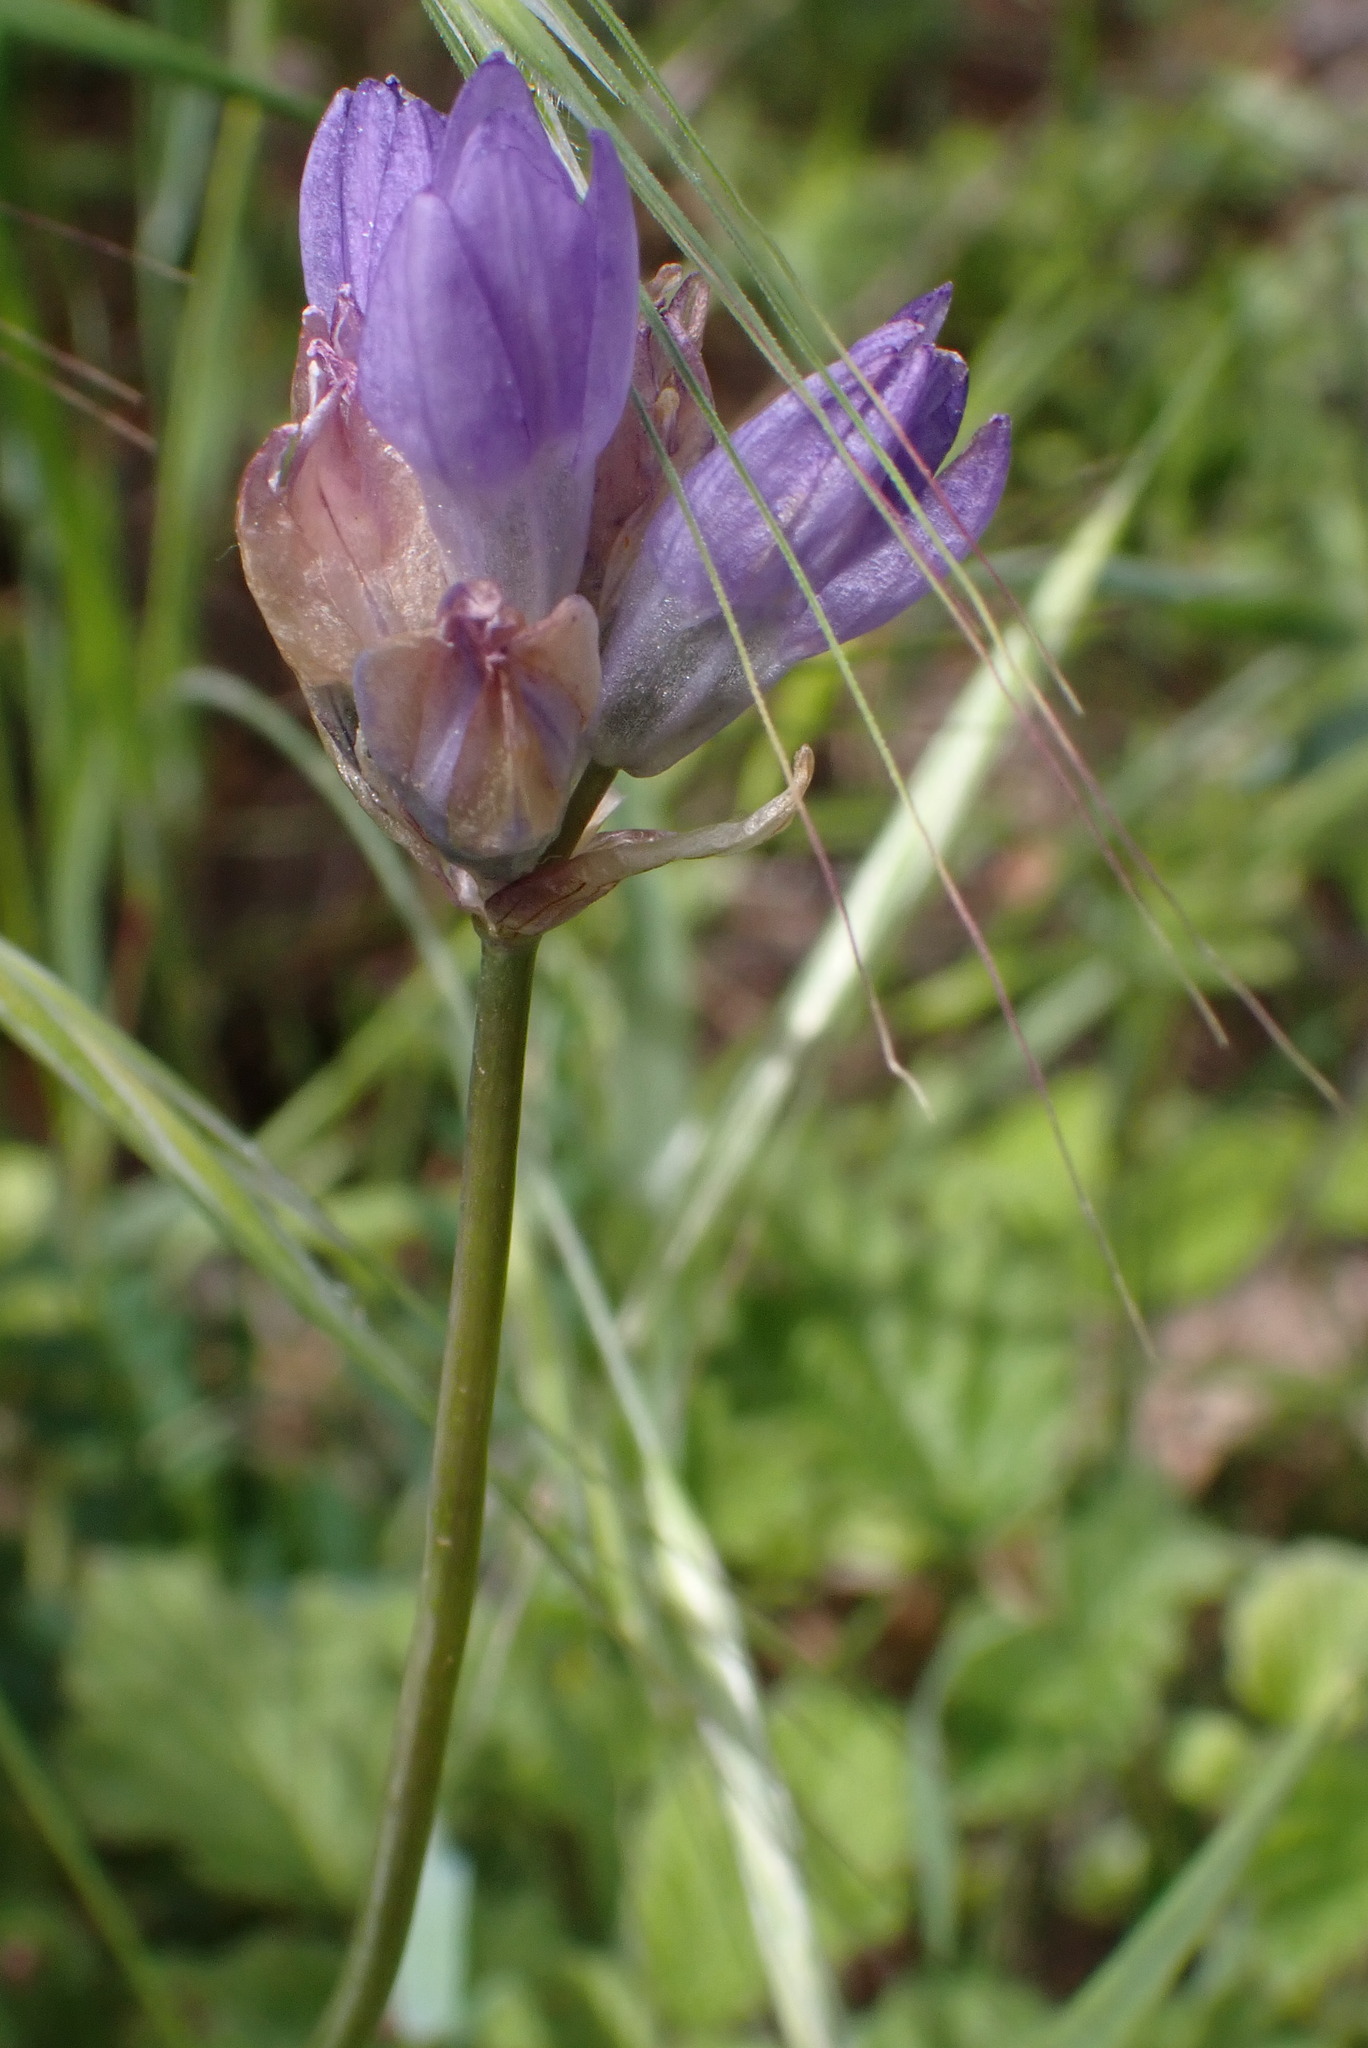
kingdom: Plantae
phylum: Tracheophyta
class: Liliopsida
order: Asparagales
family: Asparagaceae
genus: Dipterostemon
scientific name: Dipterostemon capitatus
